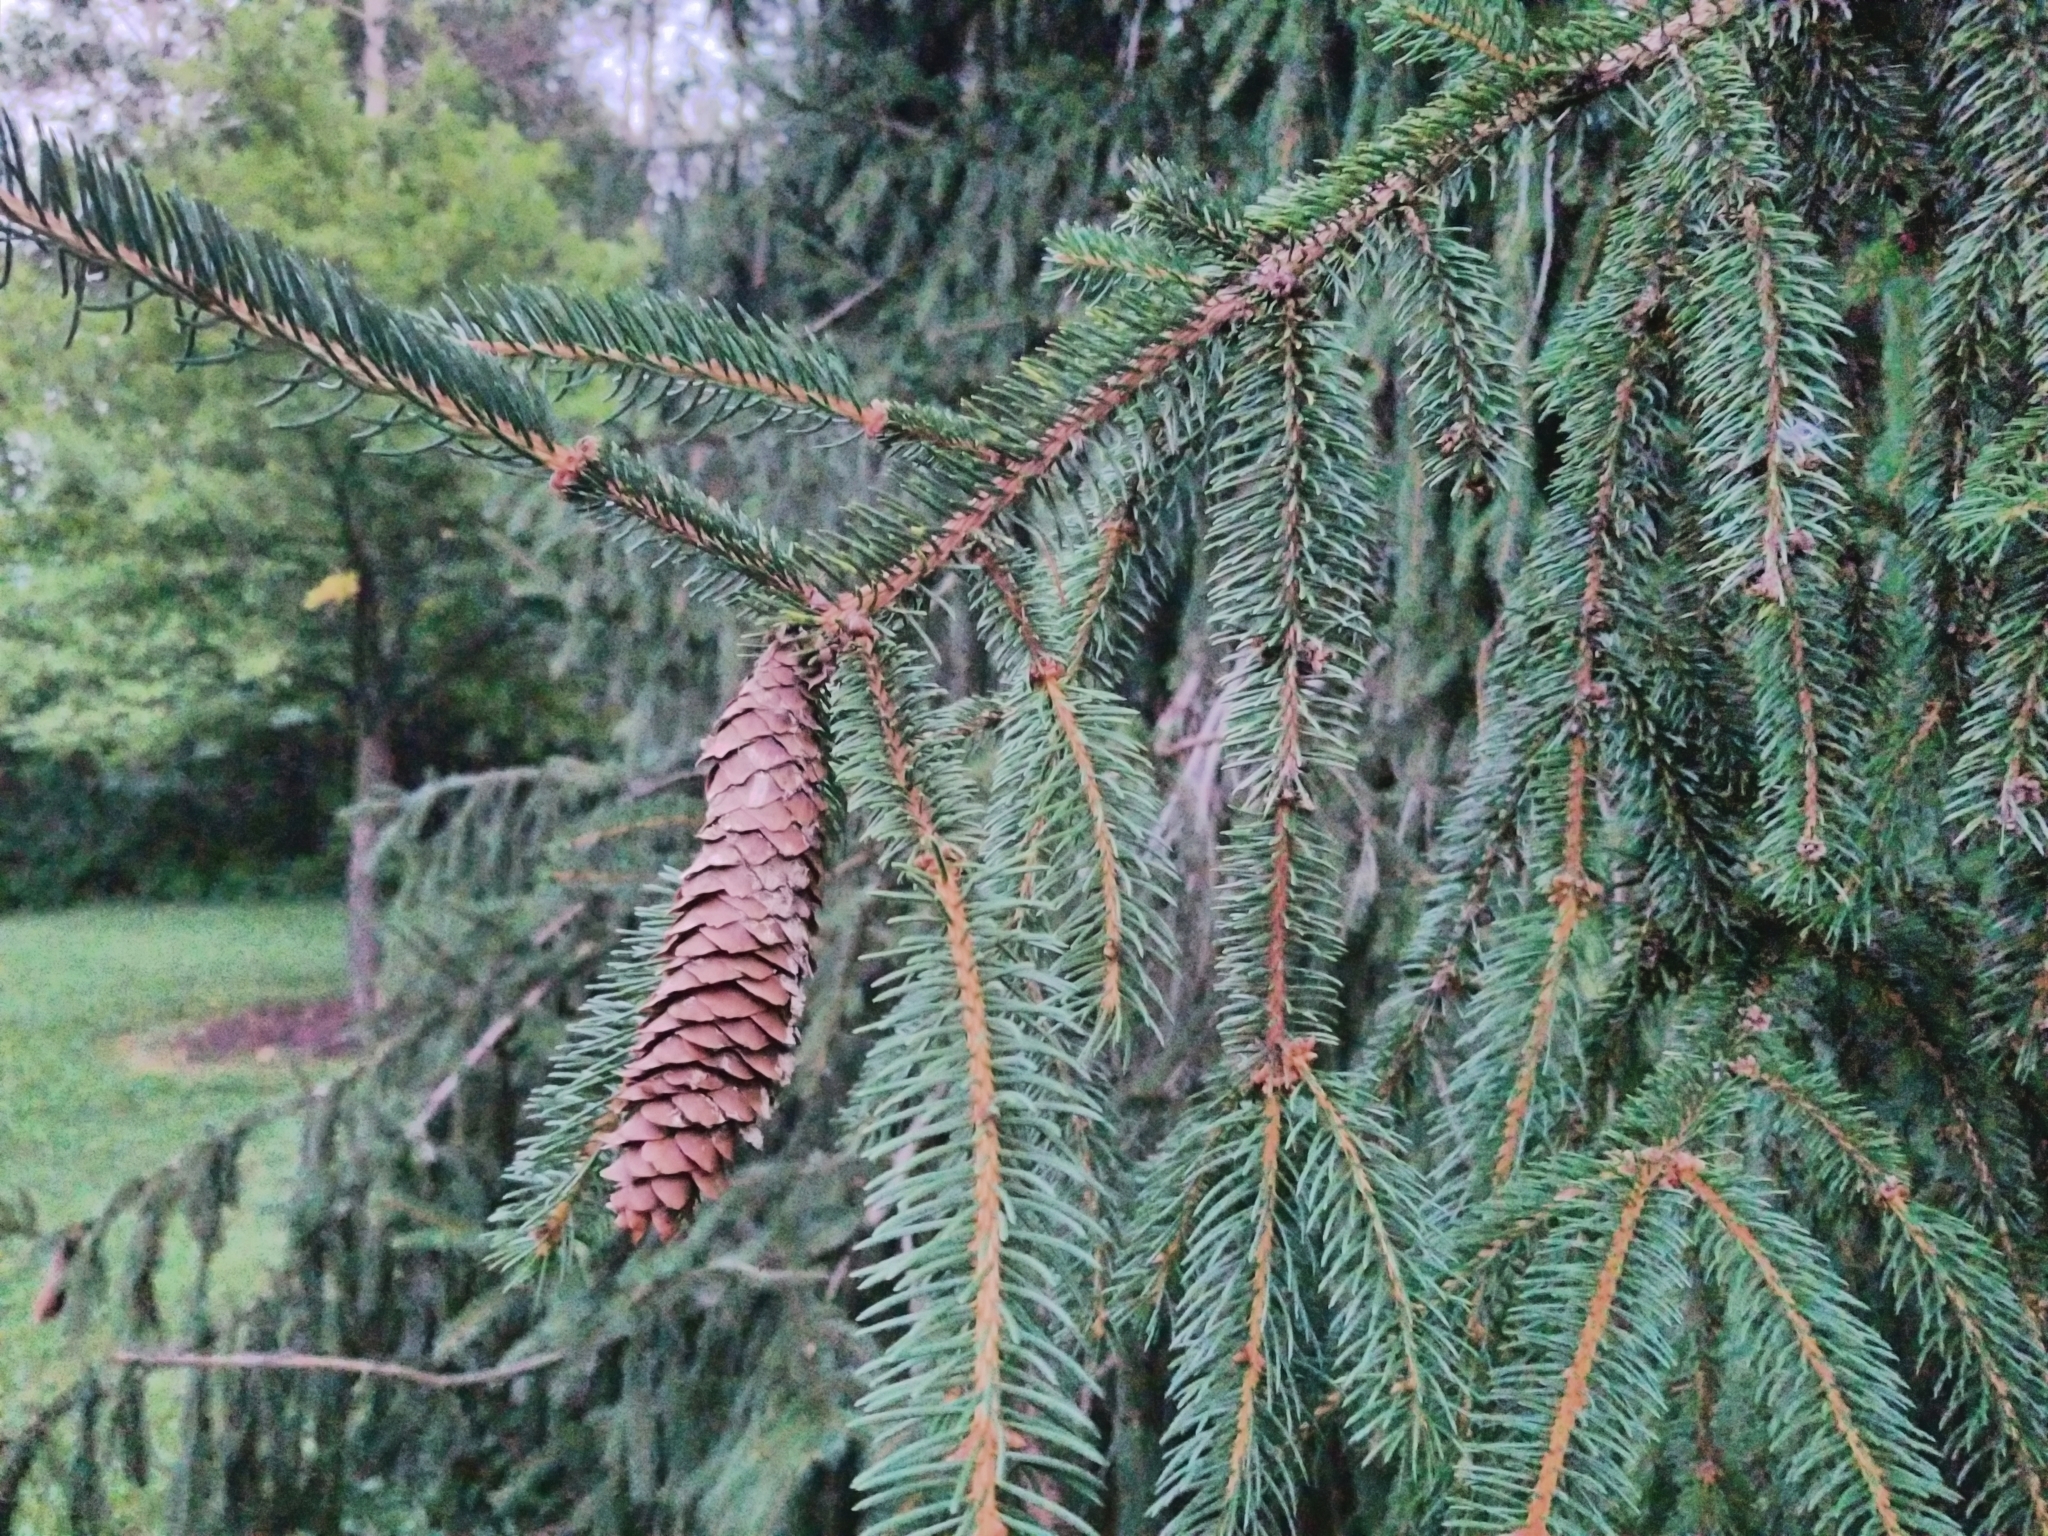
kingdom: Plantae
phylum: Tracheophyta
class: Pinopsida
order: Pinales
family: Pinaceae
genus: Picea
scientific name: Picea abies
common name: Norway spruce
